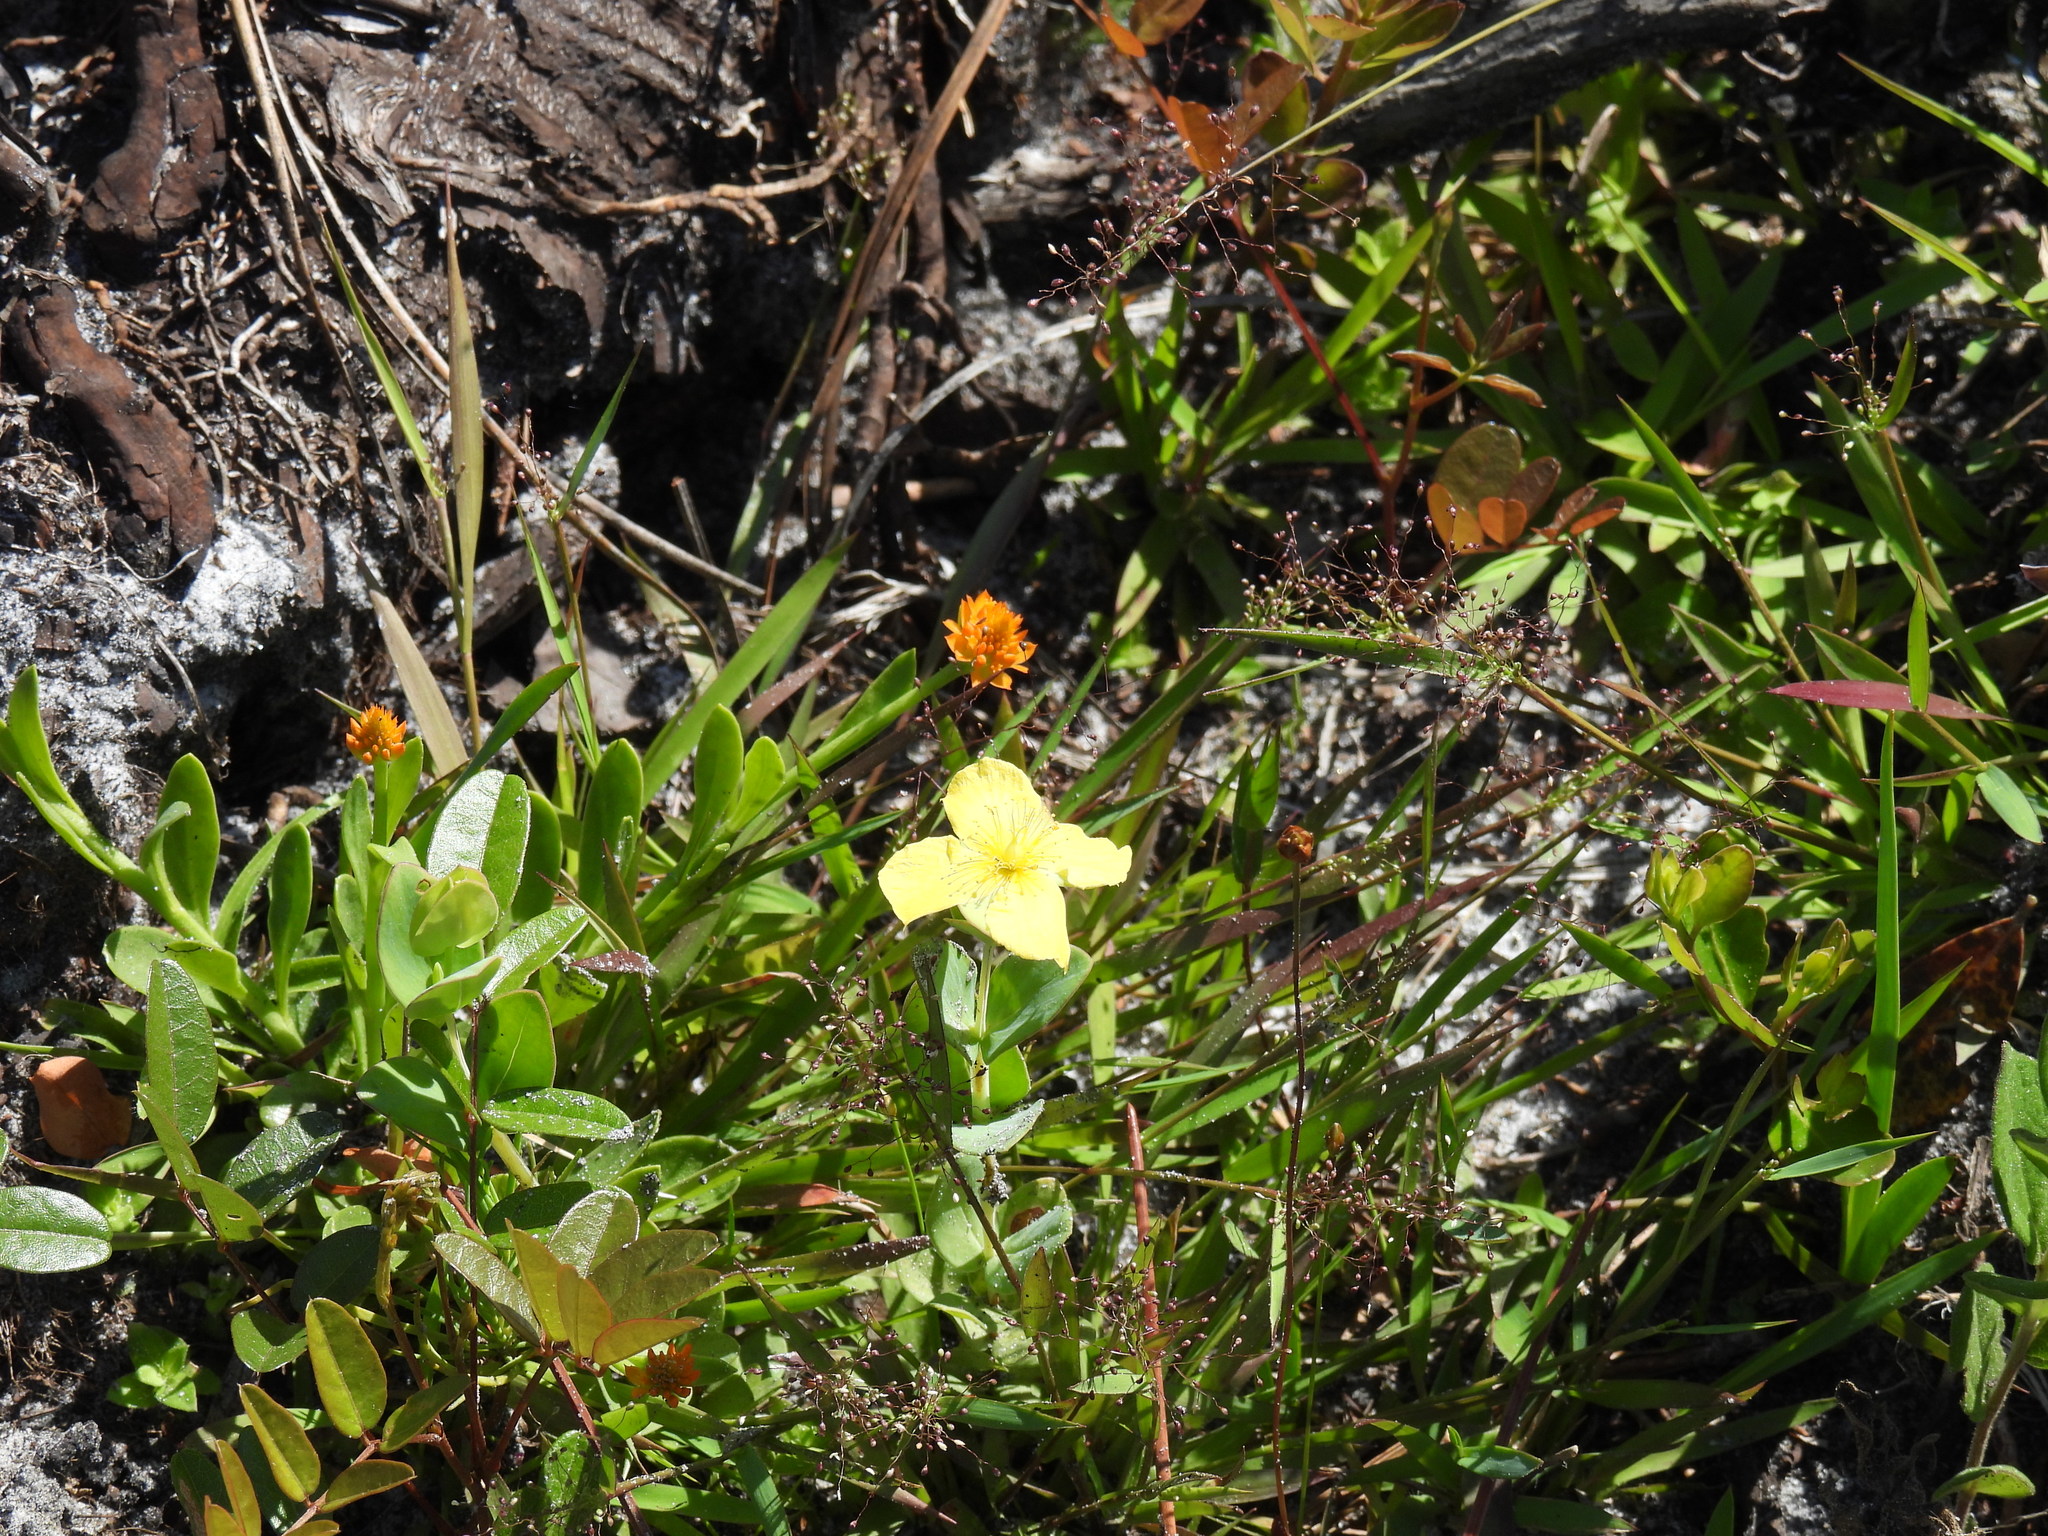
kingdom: Plantae
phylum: Tracheophyta
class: Magnoliopsida
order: Malpighiales
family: Hypericaceae
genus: Hypericum
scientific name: Hypericum tetrapetalum
